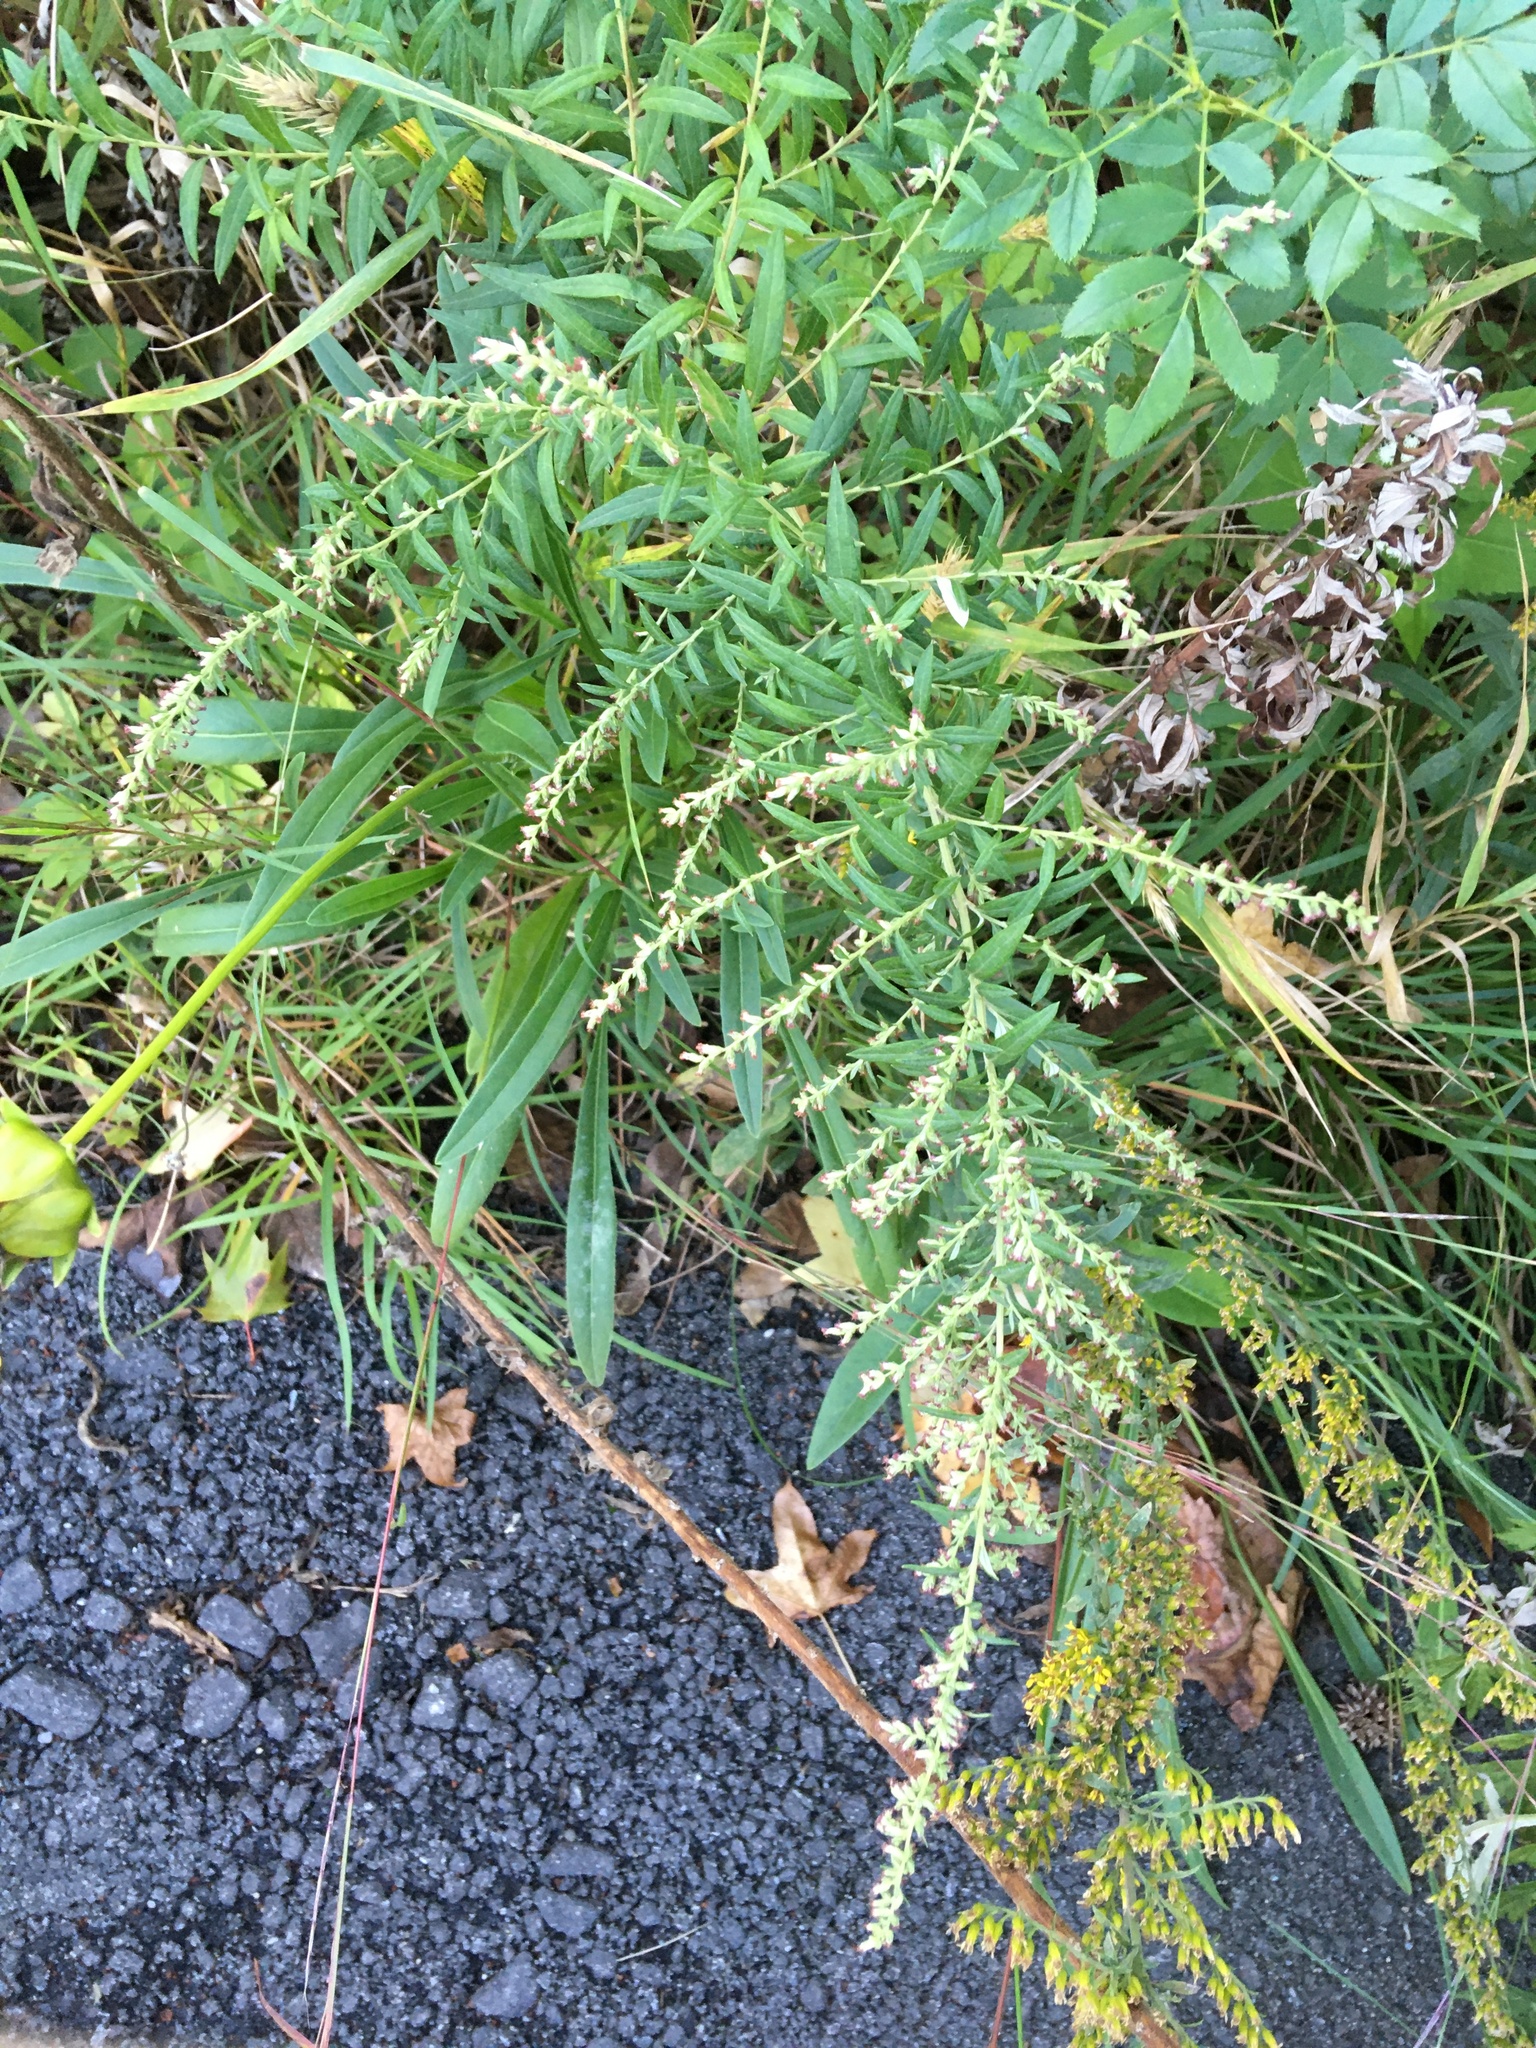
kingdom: Plantae
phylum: Tracheophyta
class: Magnoliopsida
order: Asterales
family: Asteraceae
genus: Artemisia
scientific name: Artemisia vulgaris
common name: Mugwort
